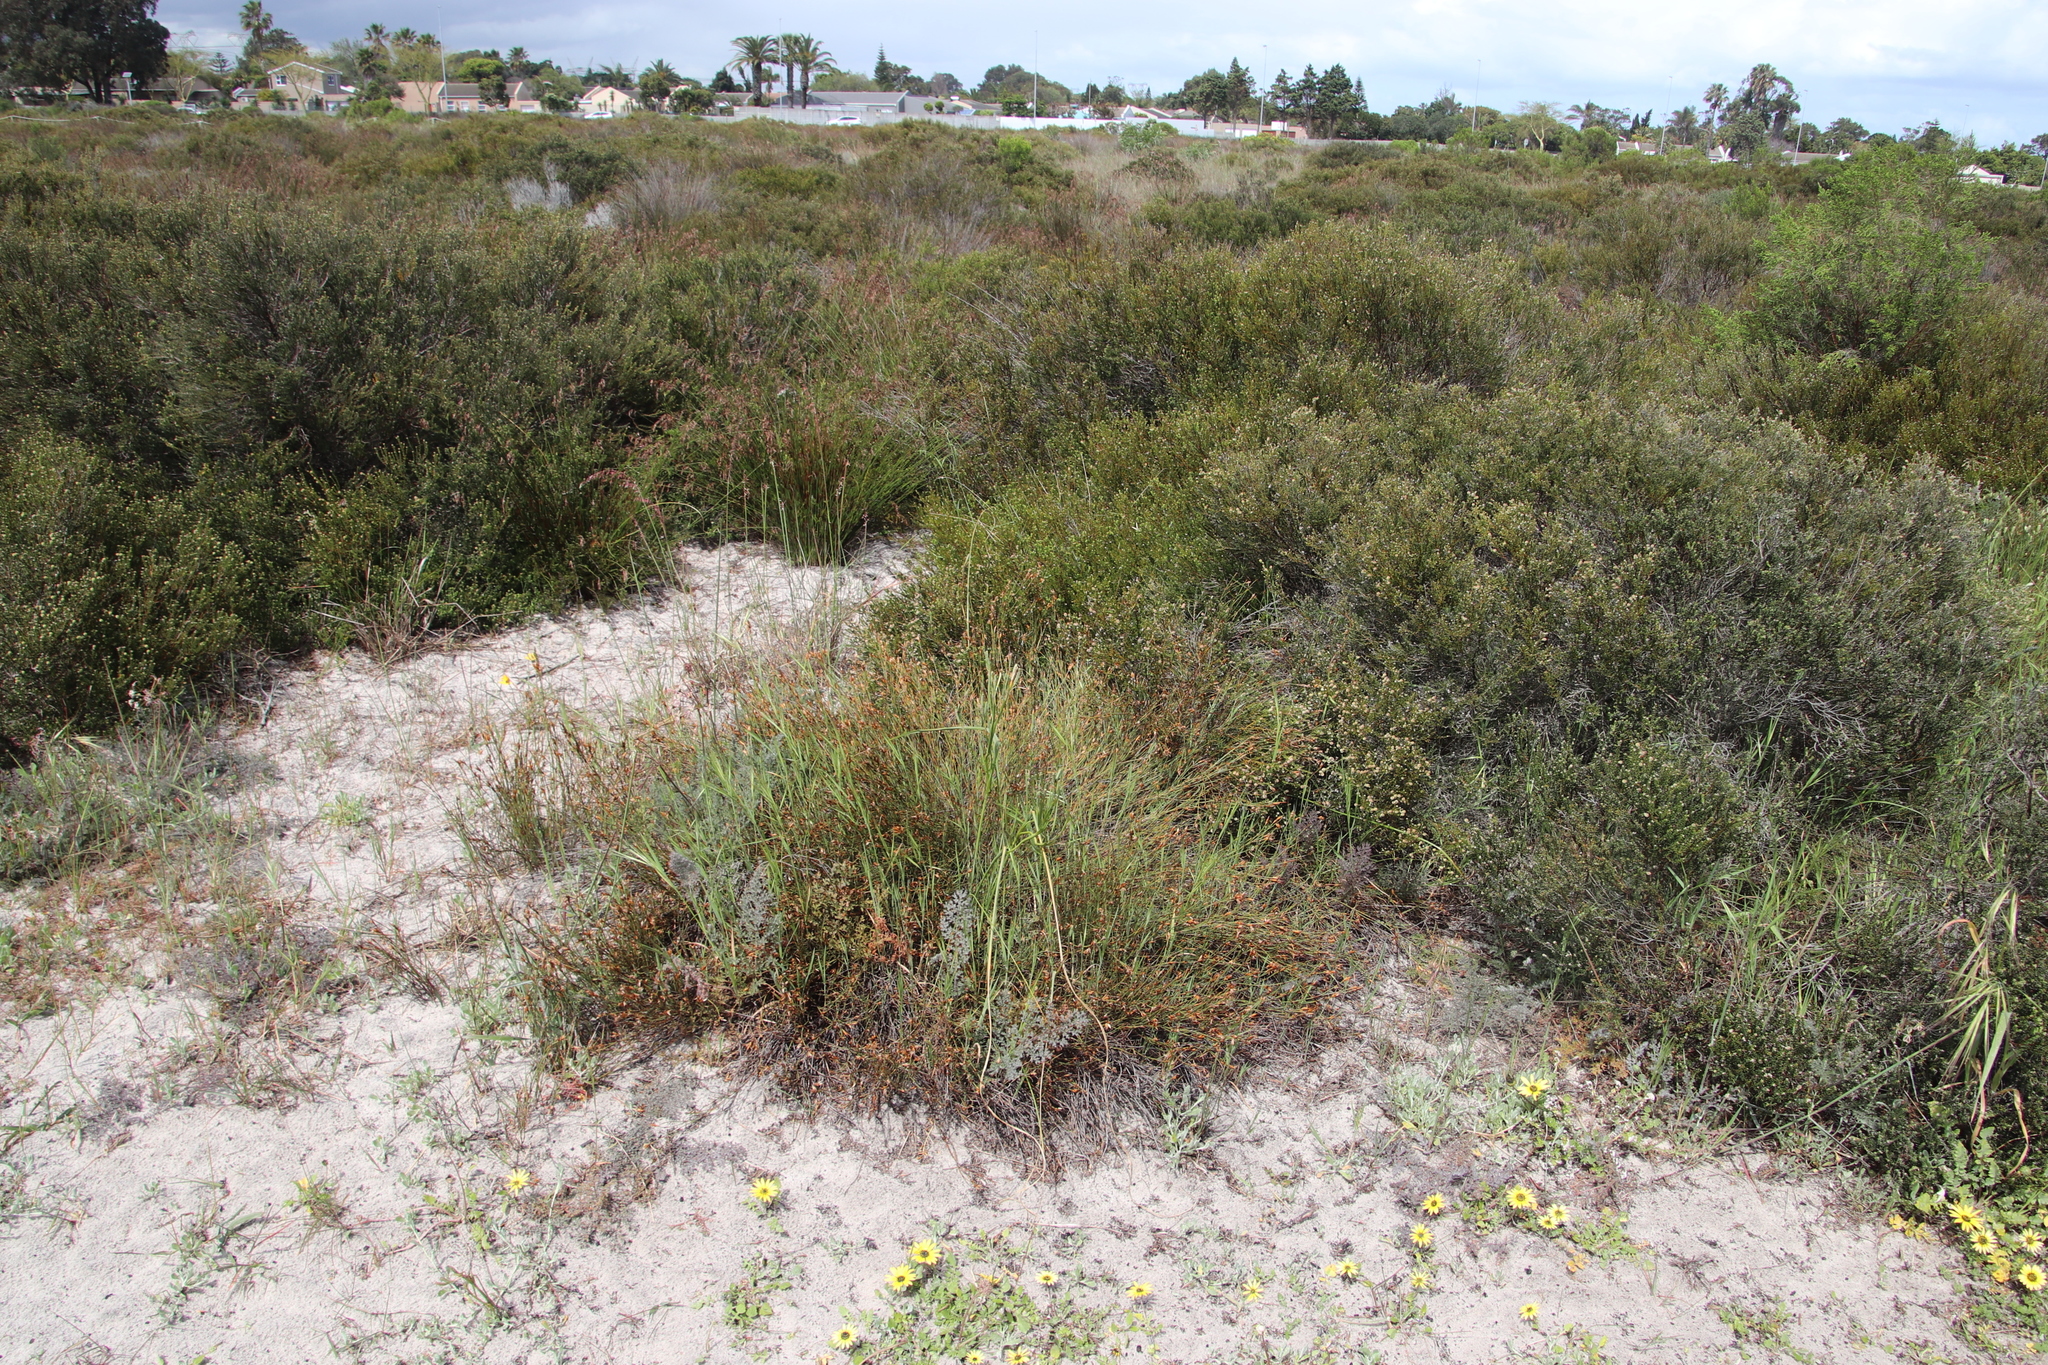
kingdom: Plantae
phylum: Tracheophyta
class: Liliopsida
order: Poales
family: Restionaceae
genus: Willdenowia
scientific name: Willdenowia arescens
